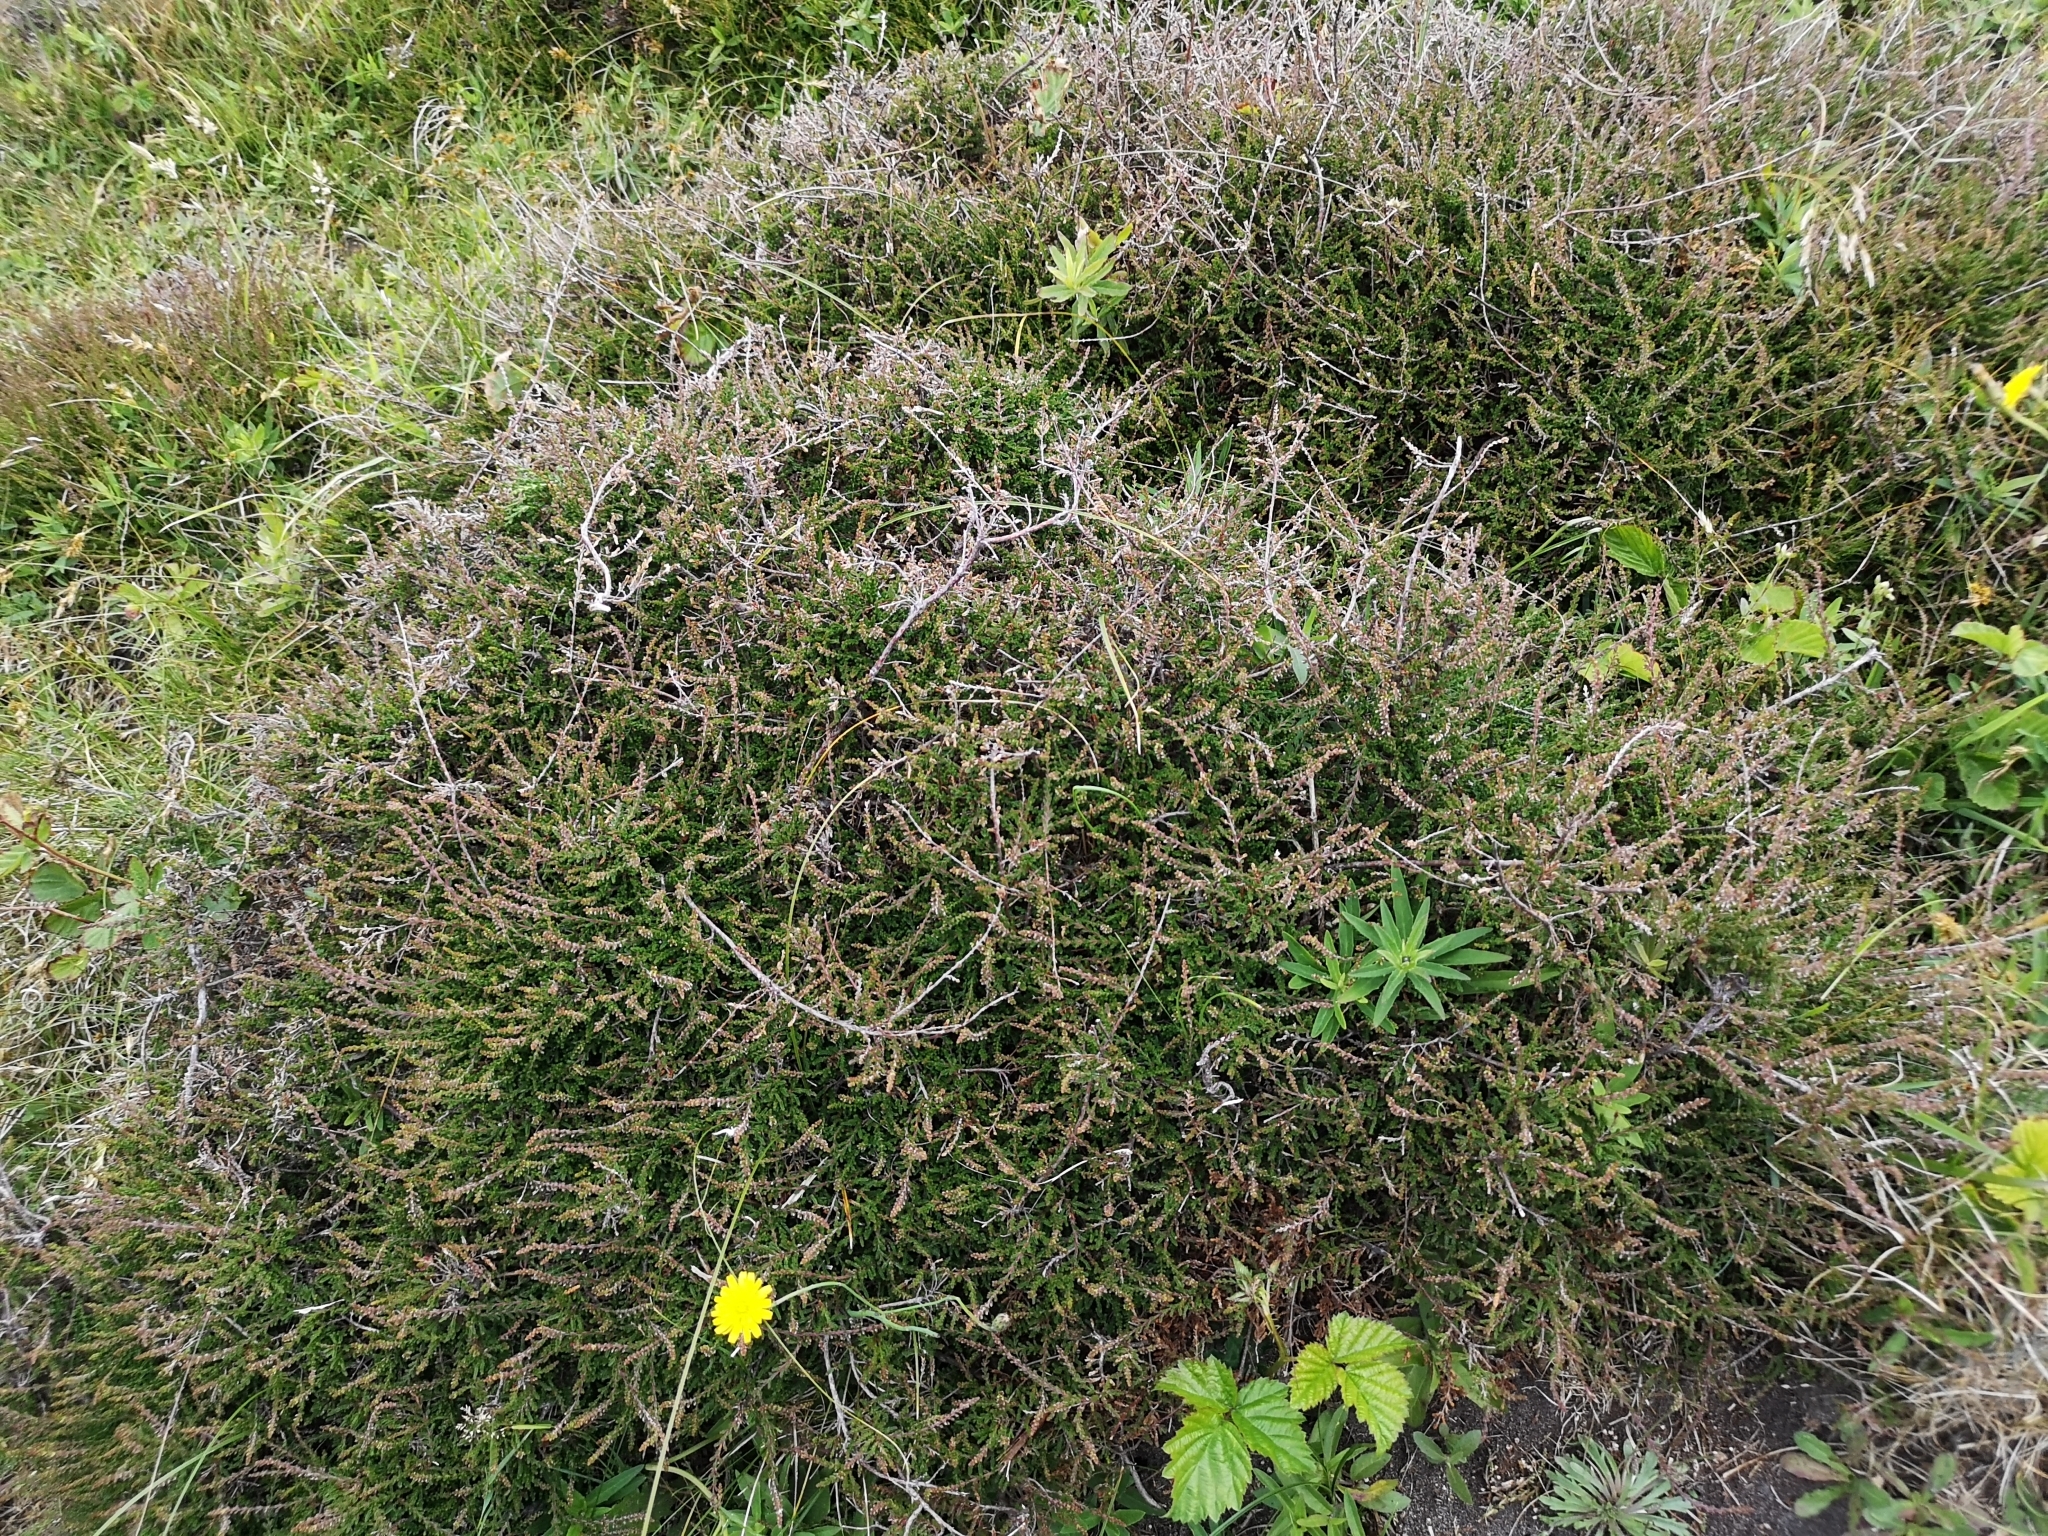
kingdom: Plantae
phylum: Tracheophyta
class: Magnoliopsida
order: Ericales
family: Ericaceae
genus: Calluna
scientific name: Calluna vulgaris
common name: Heather
